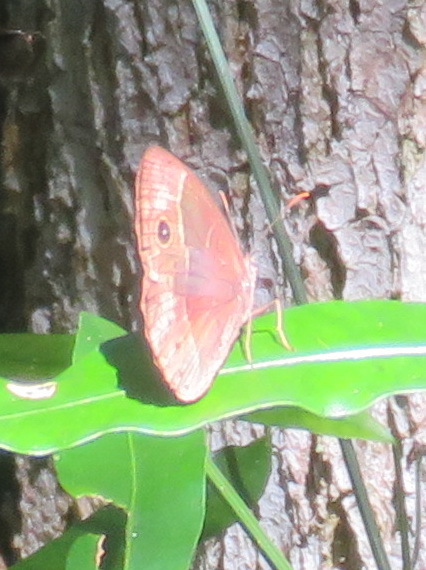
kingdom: Animalia
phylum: Arthropoda
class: Insecta
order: Lepidoptera
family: Nymphalidae
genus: Mycalesis
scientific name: Mycalesis rhacotis
